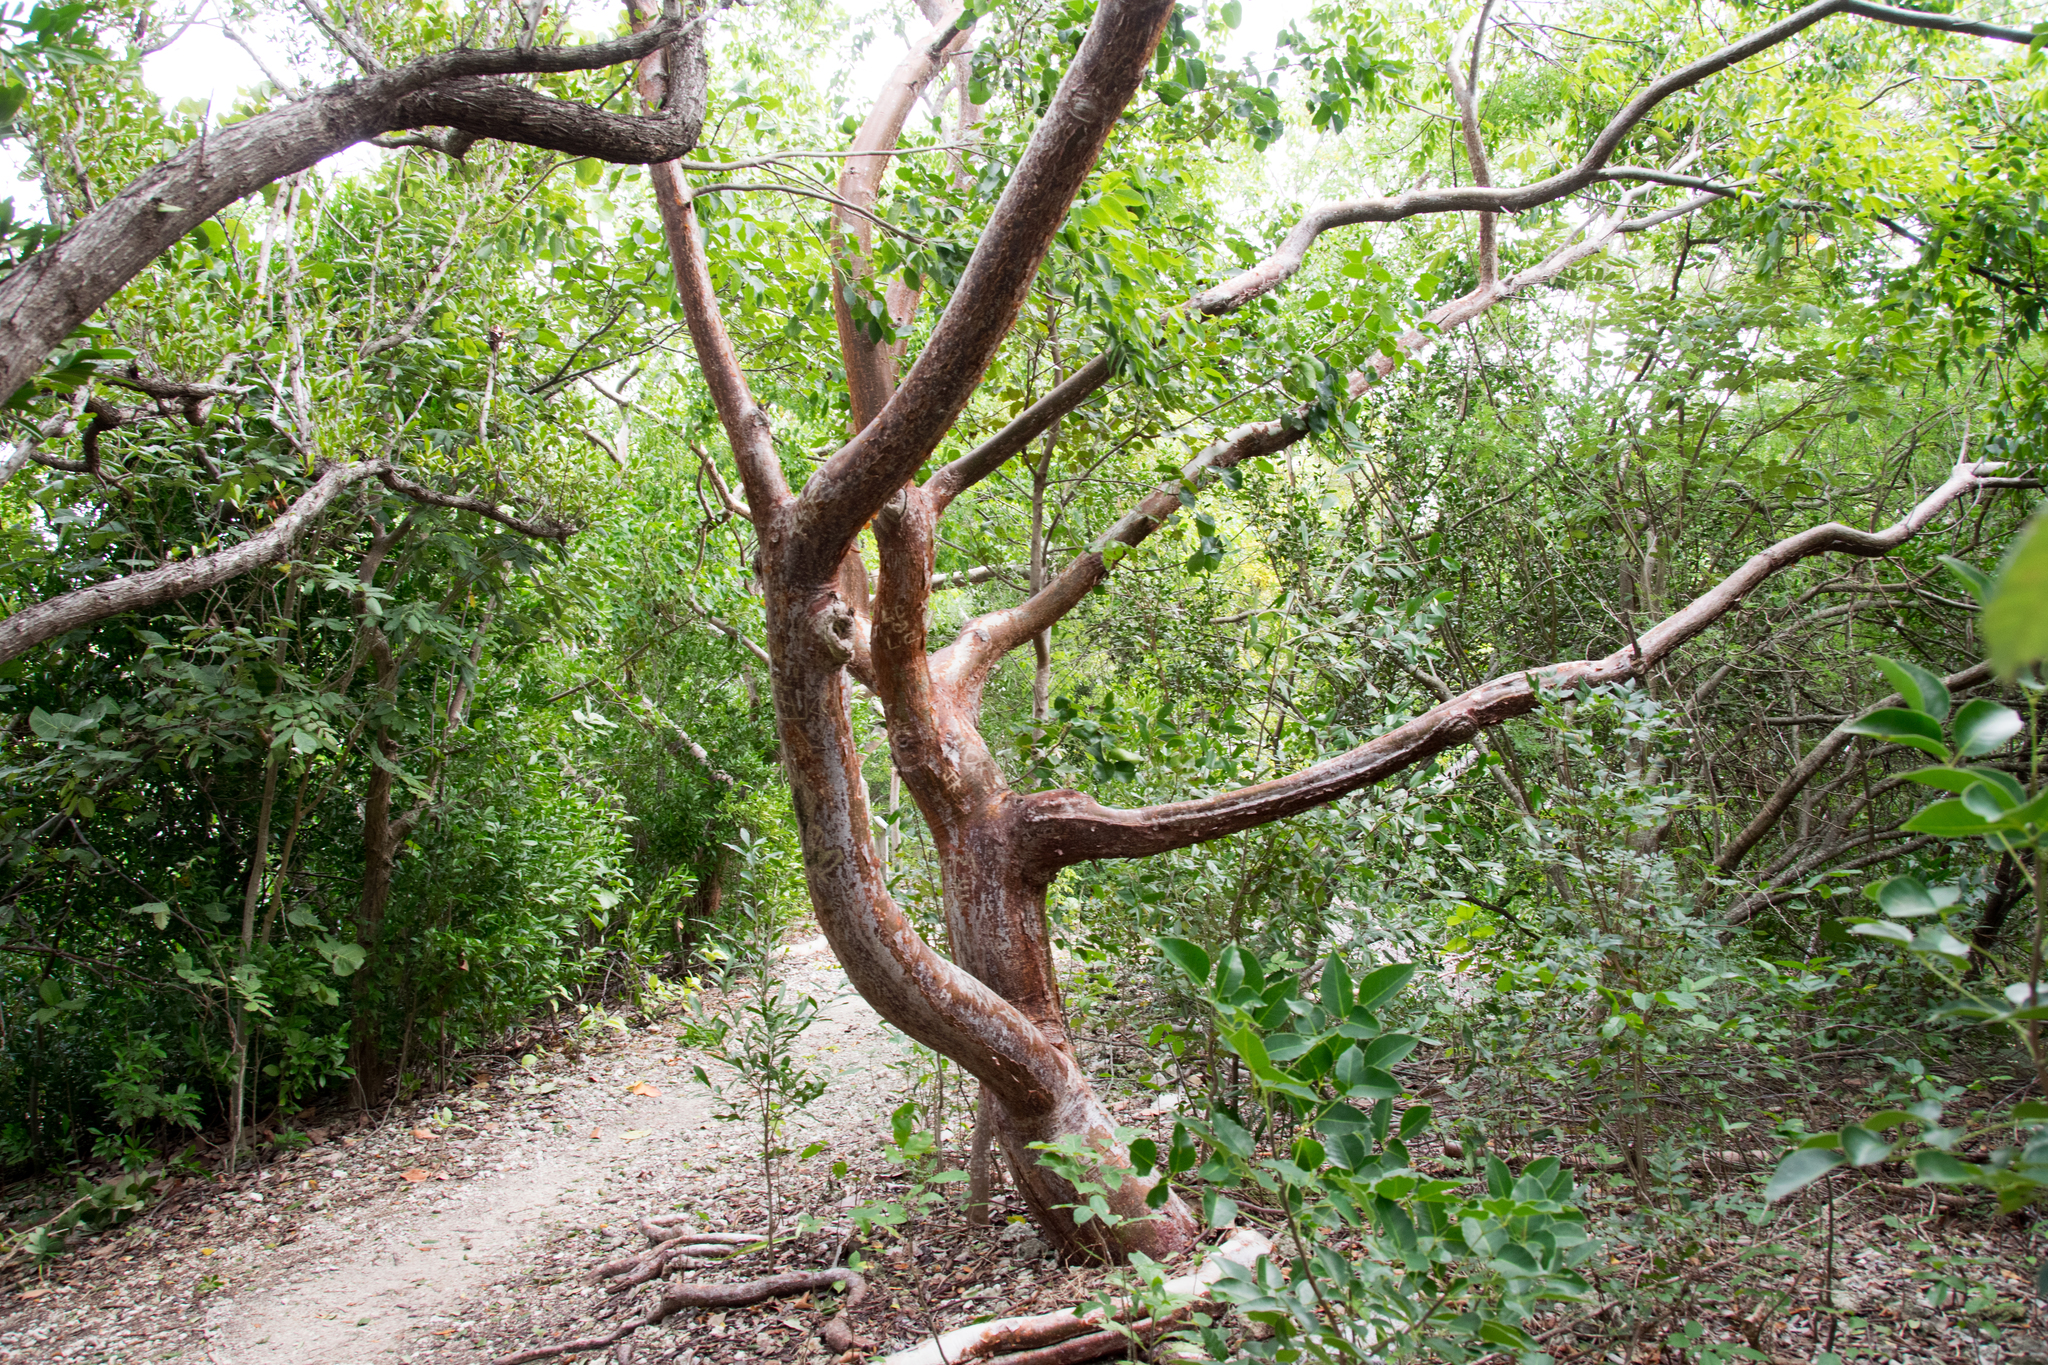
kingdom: Plantae
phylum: Tracheophyta
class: Magnoliopsida
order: Sapindales
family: Burseraceae
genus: Bursera
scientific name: Bursera simaruba
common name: Turpentine tree
